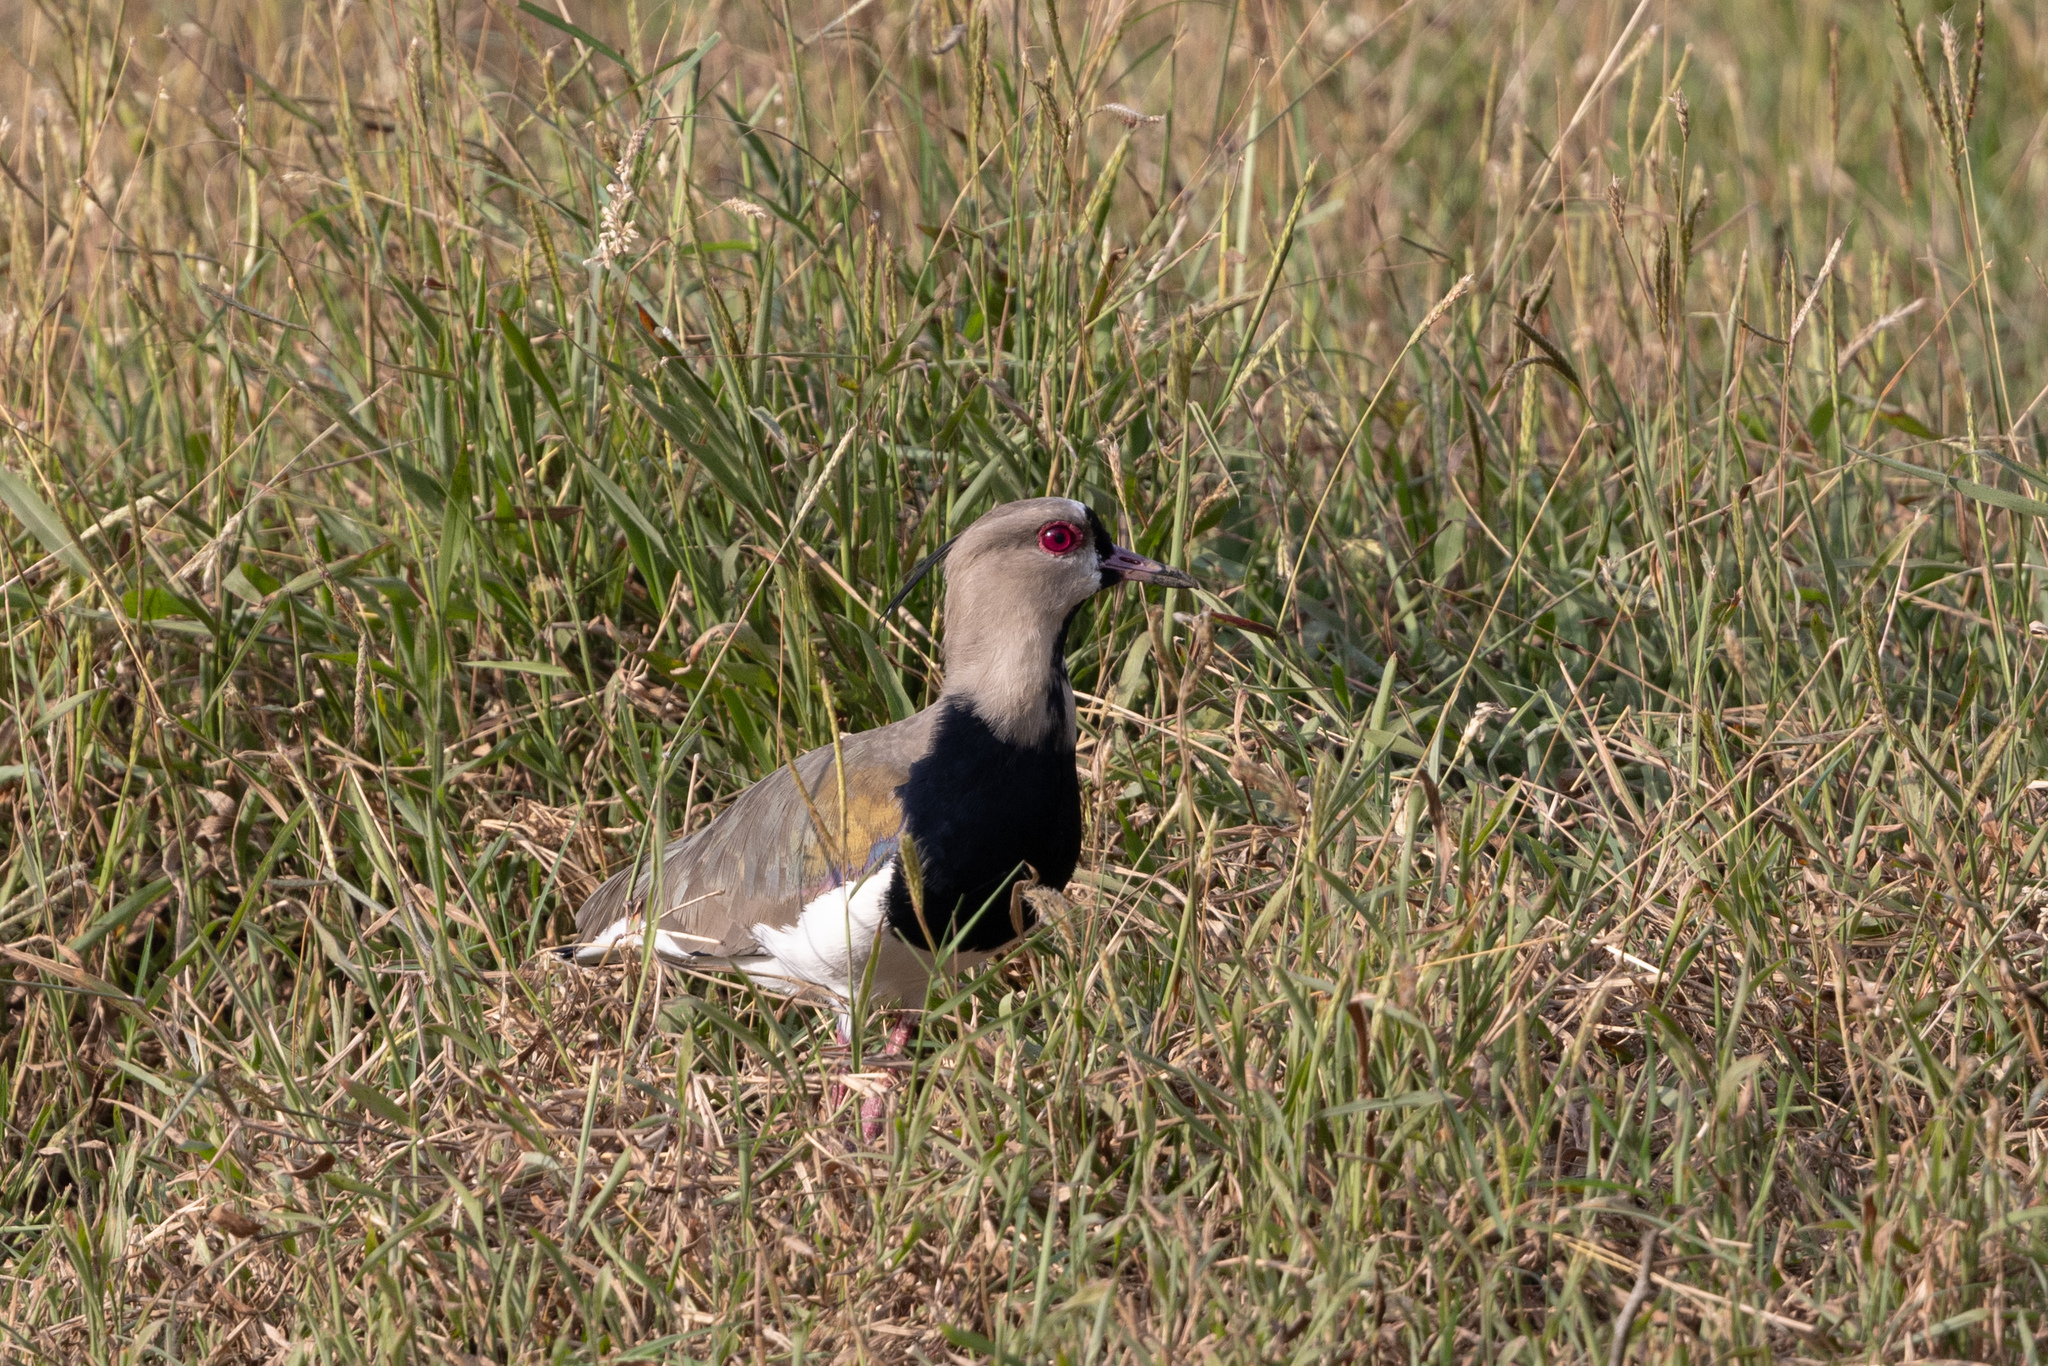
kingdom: Animalia
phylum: Chordata
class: Aves
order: Charadriiformes
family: Charadriidae
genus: Vanellus
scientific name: Vanellus chilensis
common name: Southern lapwing
